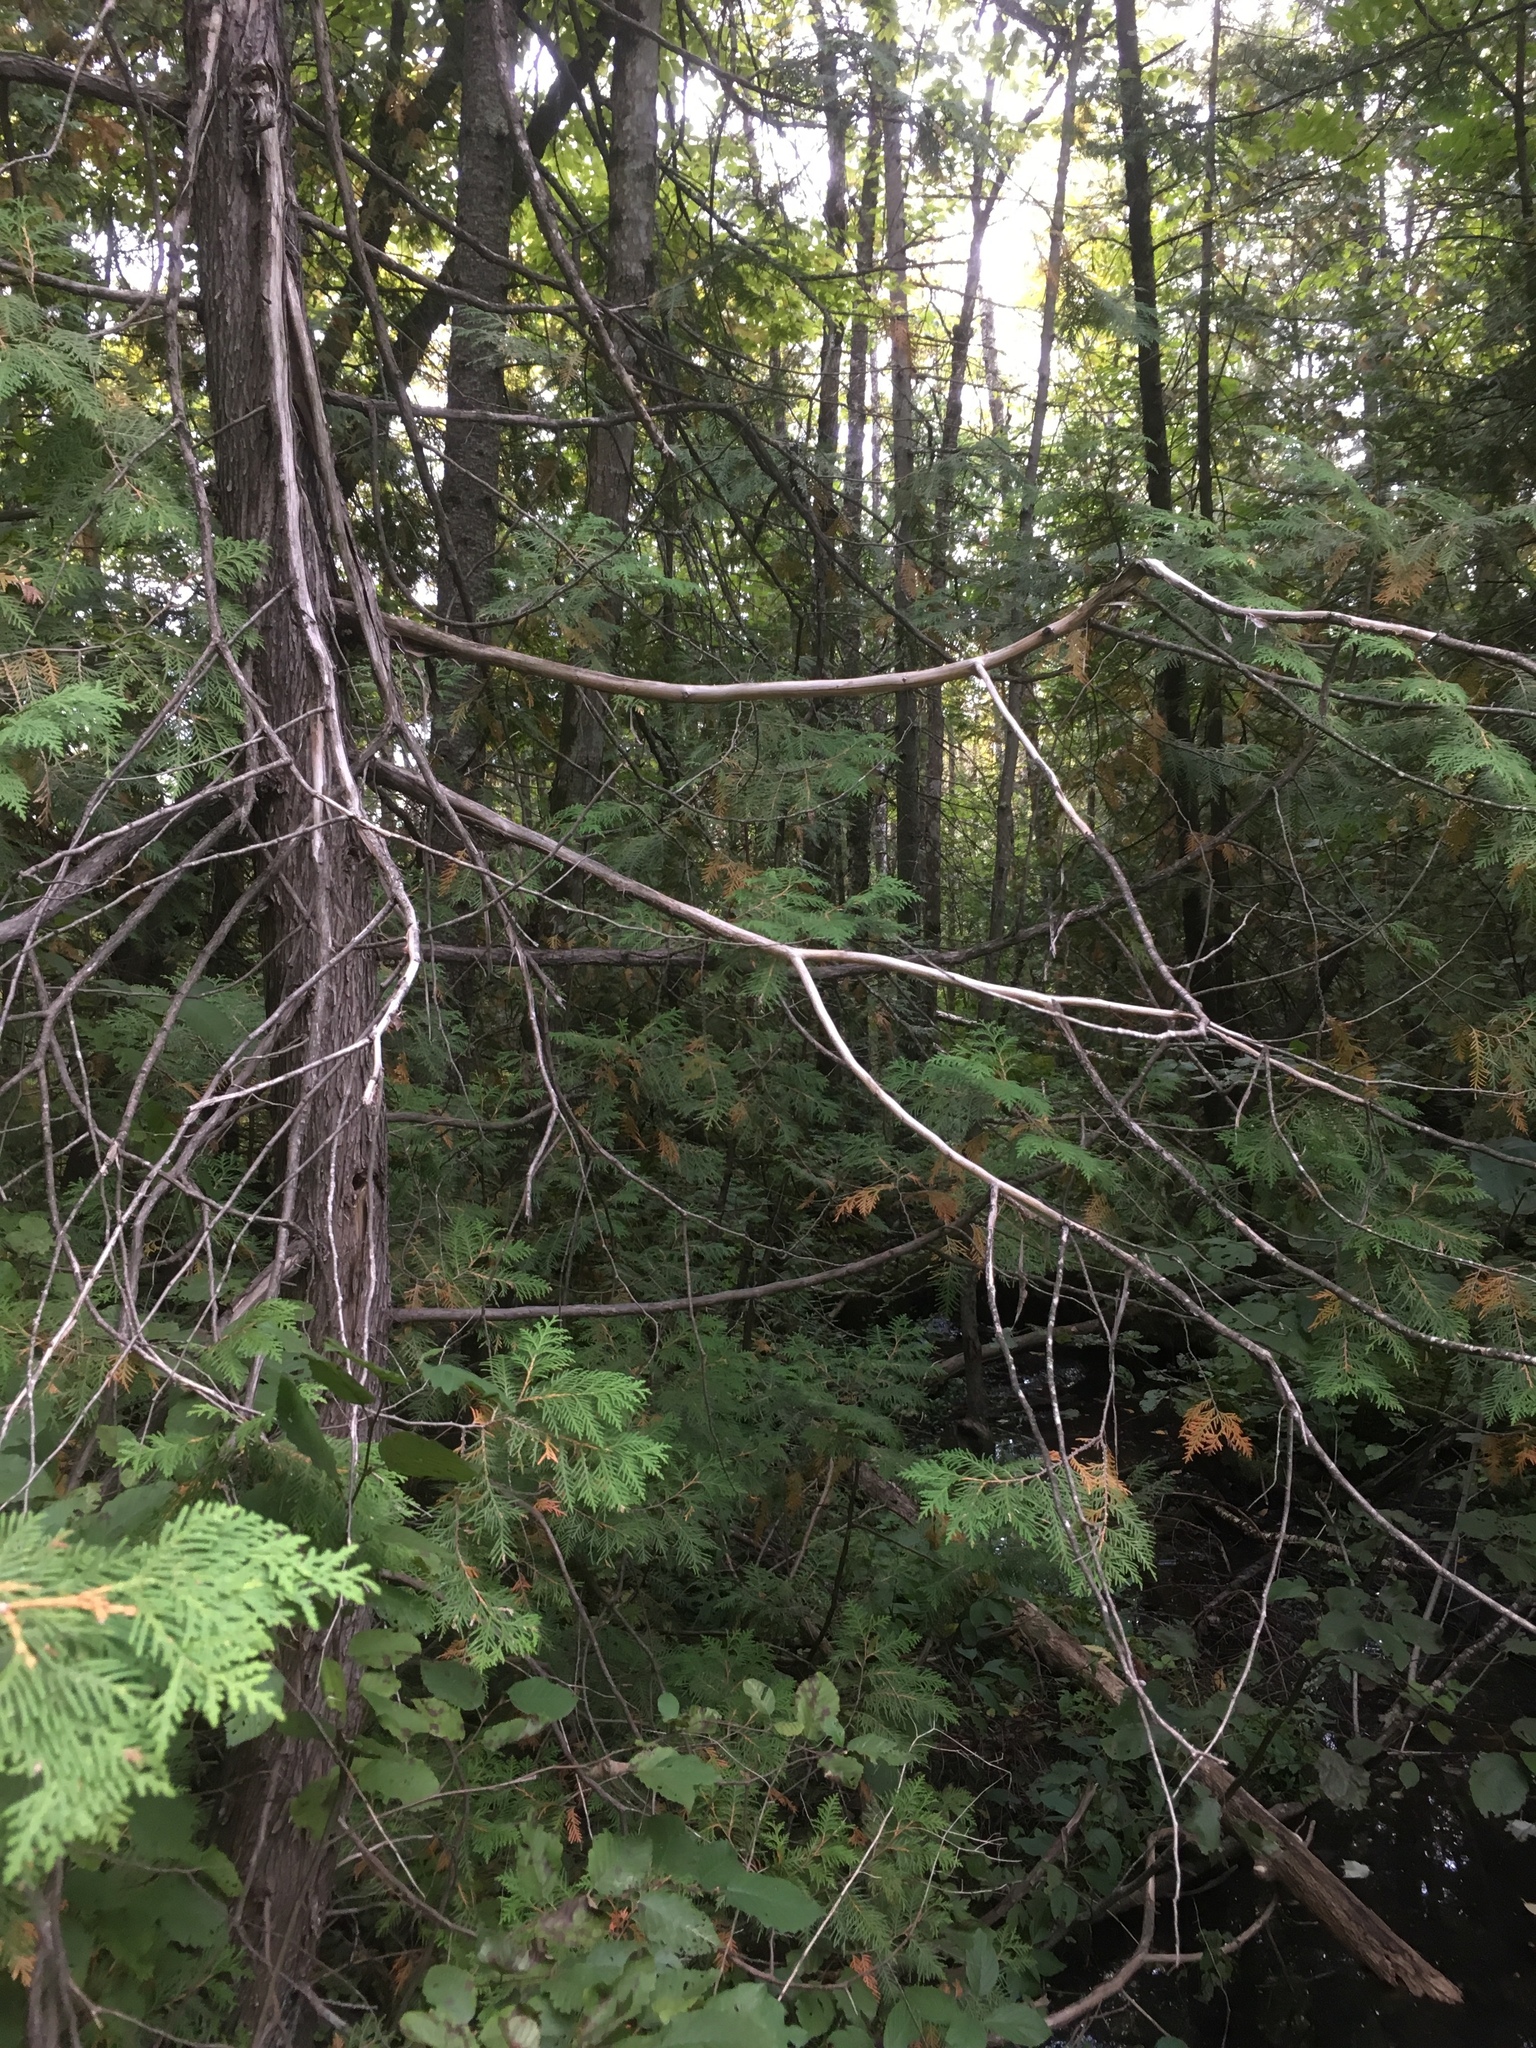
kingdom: Plantae
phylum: Tracheophyta
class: Pinopsida
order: Pinales
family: Cupressaceae
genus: Thuja
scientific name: Thuja occidentalis
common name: Northern white-cedar
